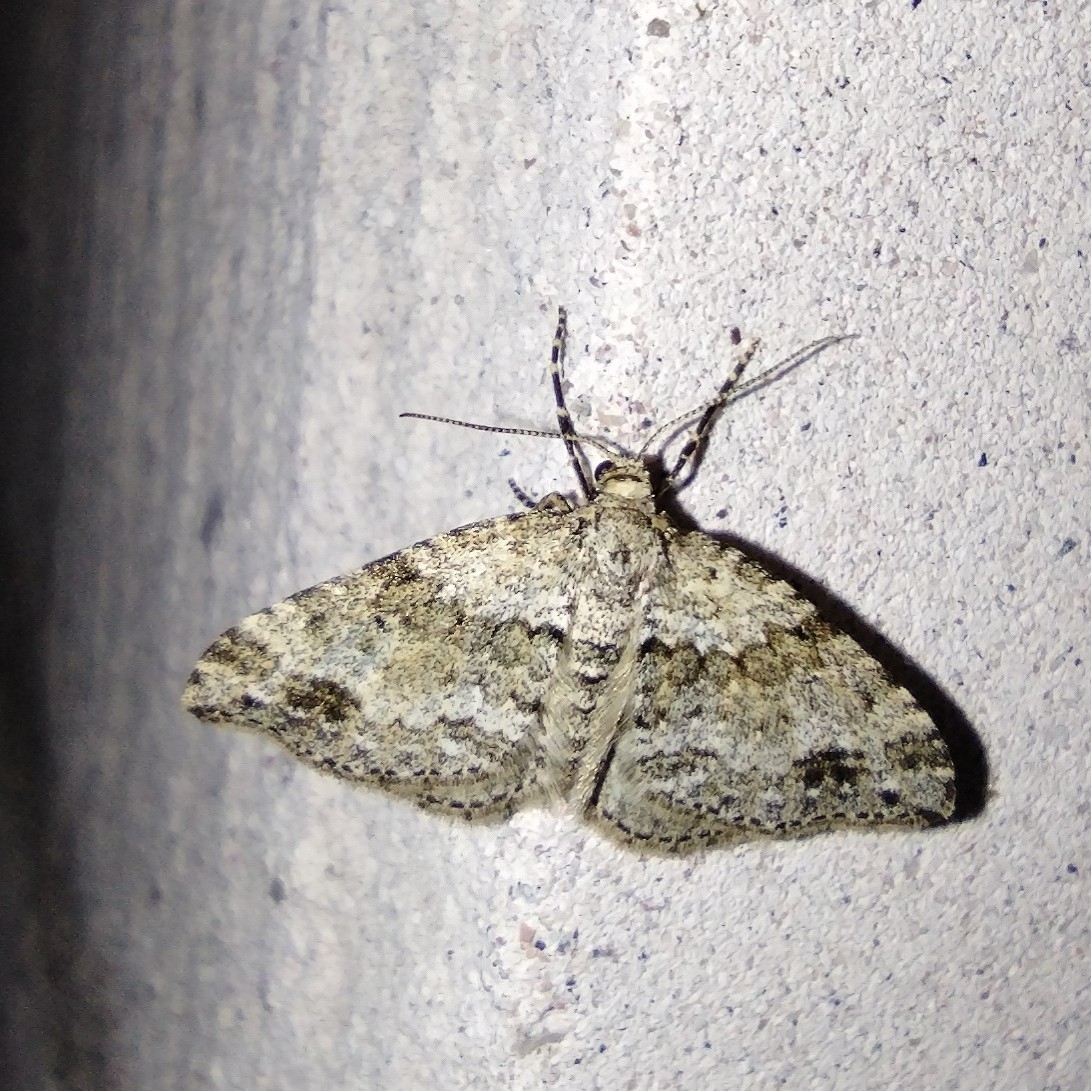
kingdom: Animalia
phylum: Arthropoda
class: Insecta
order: Lepidoptera
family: Geometridae
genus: Perizoma
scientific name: Perizoma didymata
